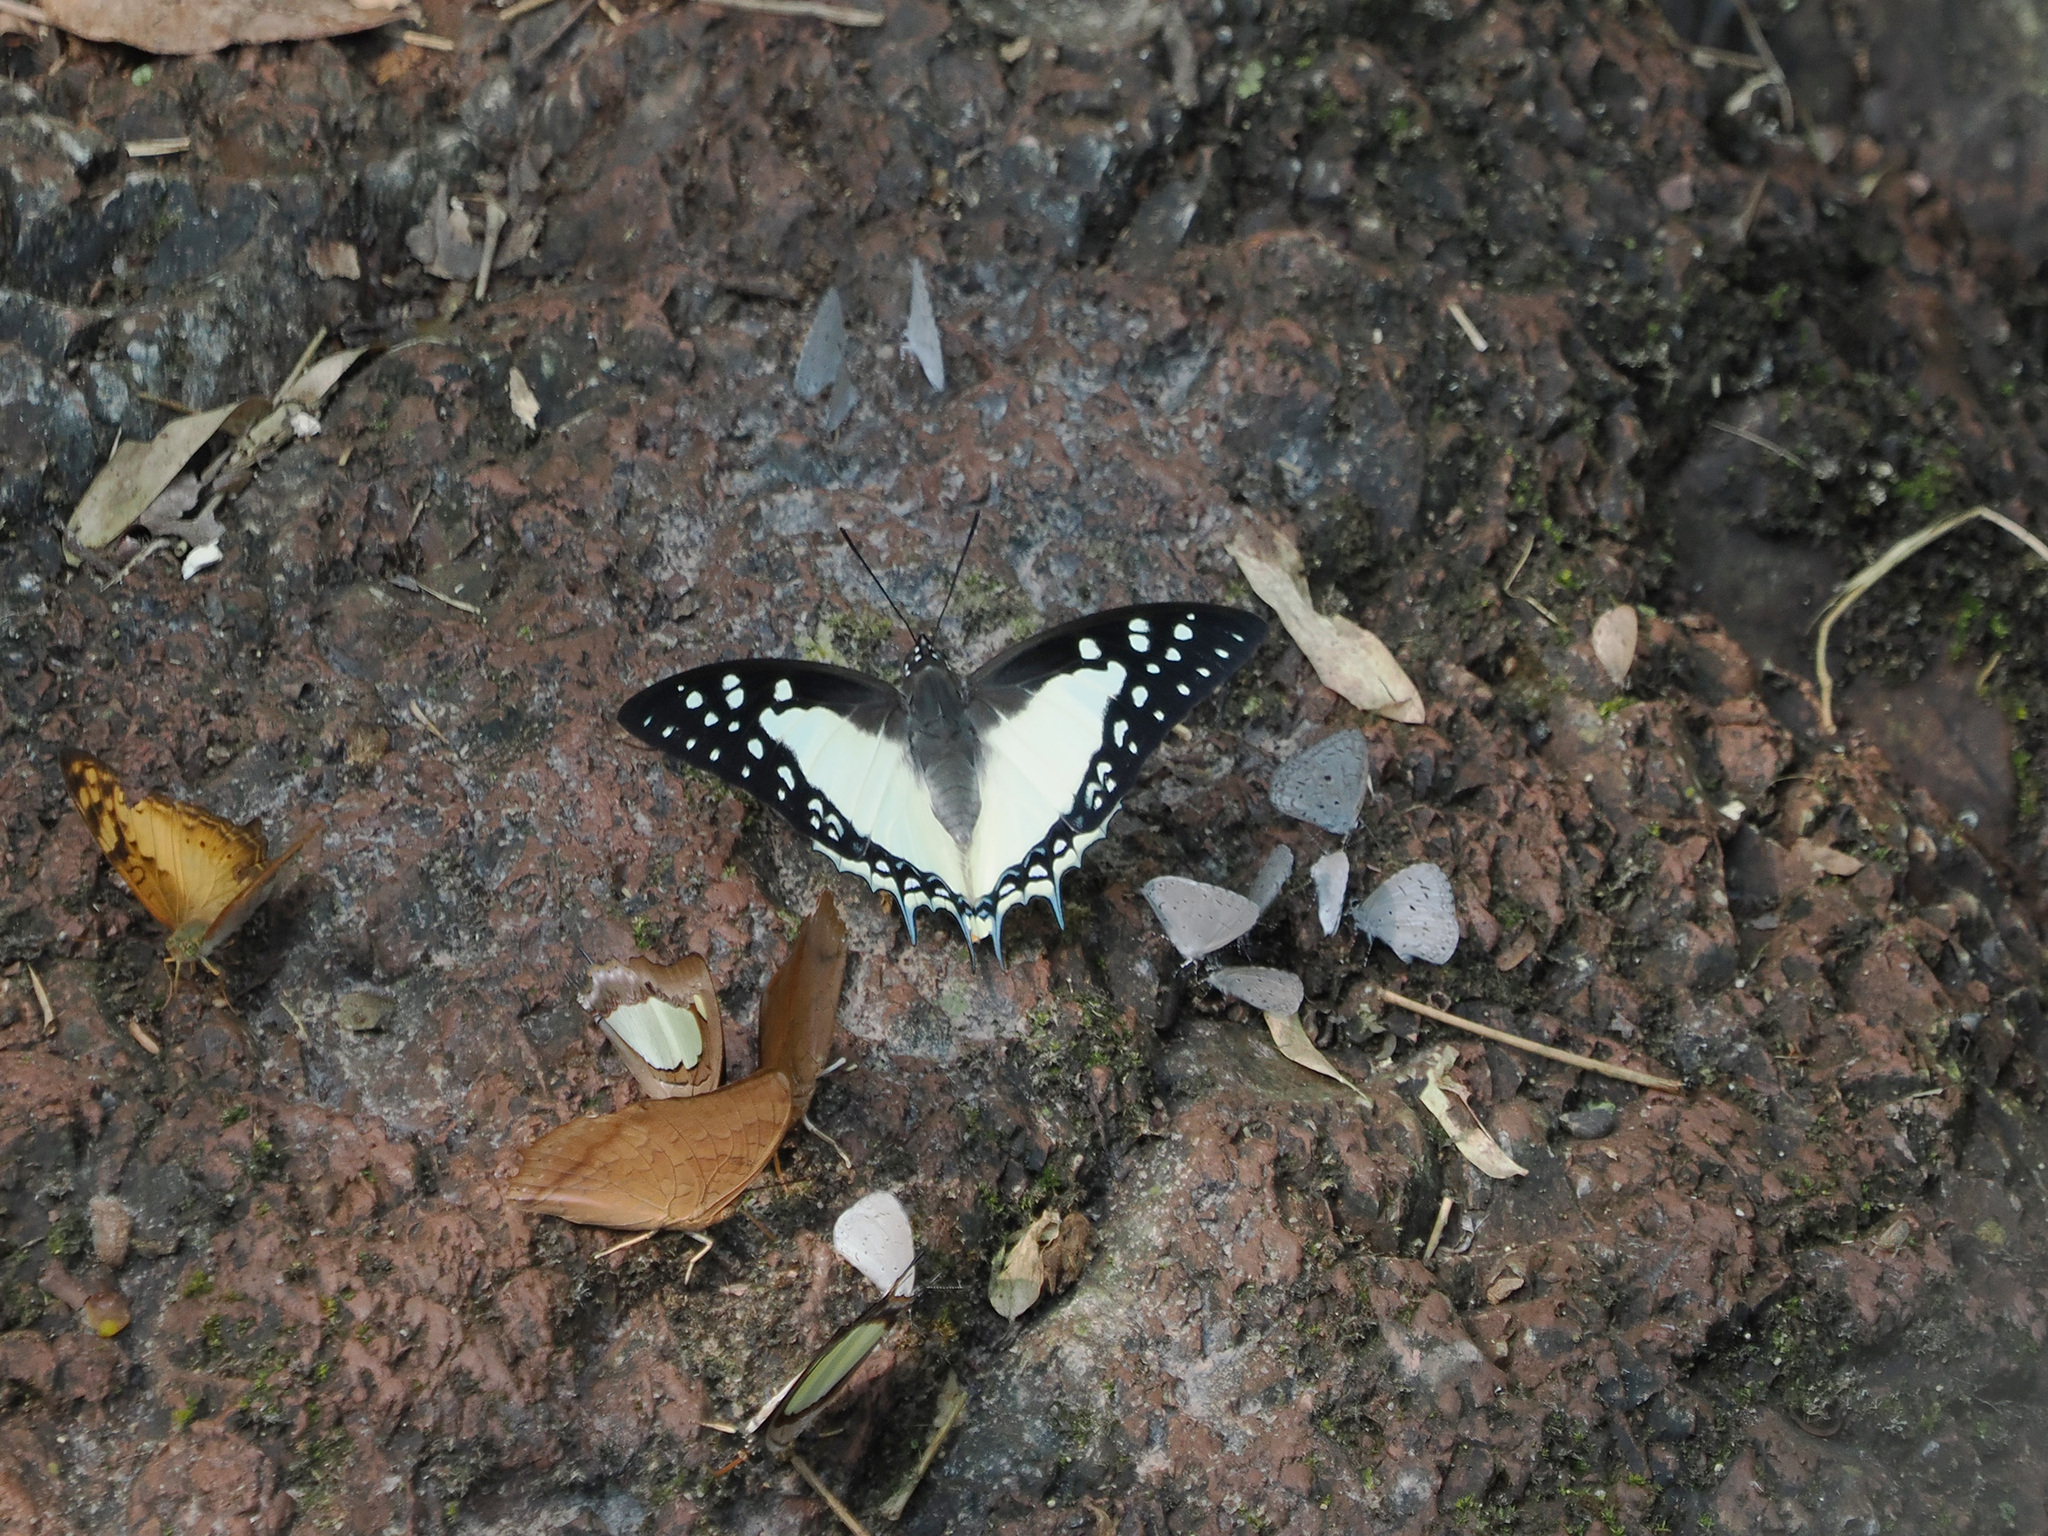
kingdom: Animalia
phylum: Arthropoda
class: Insecta
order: Lepidoptera
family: Nymphalidae
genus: Polyura
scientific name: Polyura eudamippus
